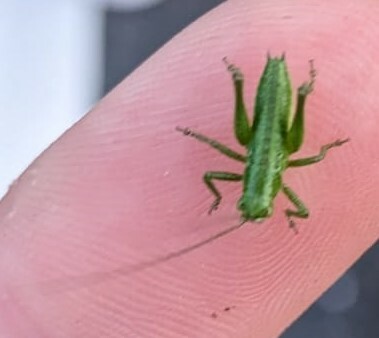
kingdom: Animalia
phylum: Arthropoda
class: Insecta
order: Orthoptera
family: Tettigoniidae
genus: Tettigonia
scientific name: Tettigonia viridissima
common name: Great green bush-cricket
